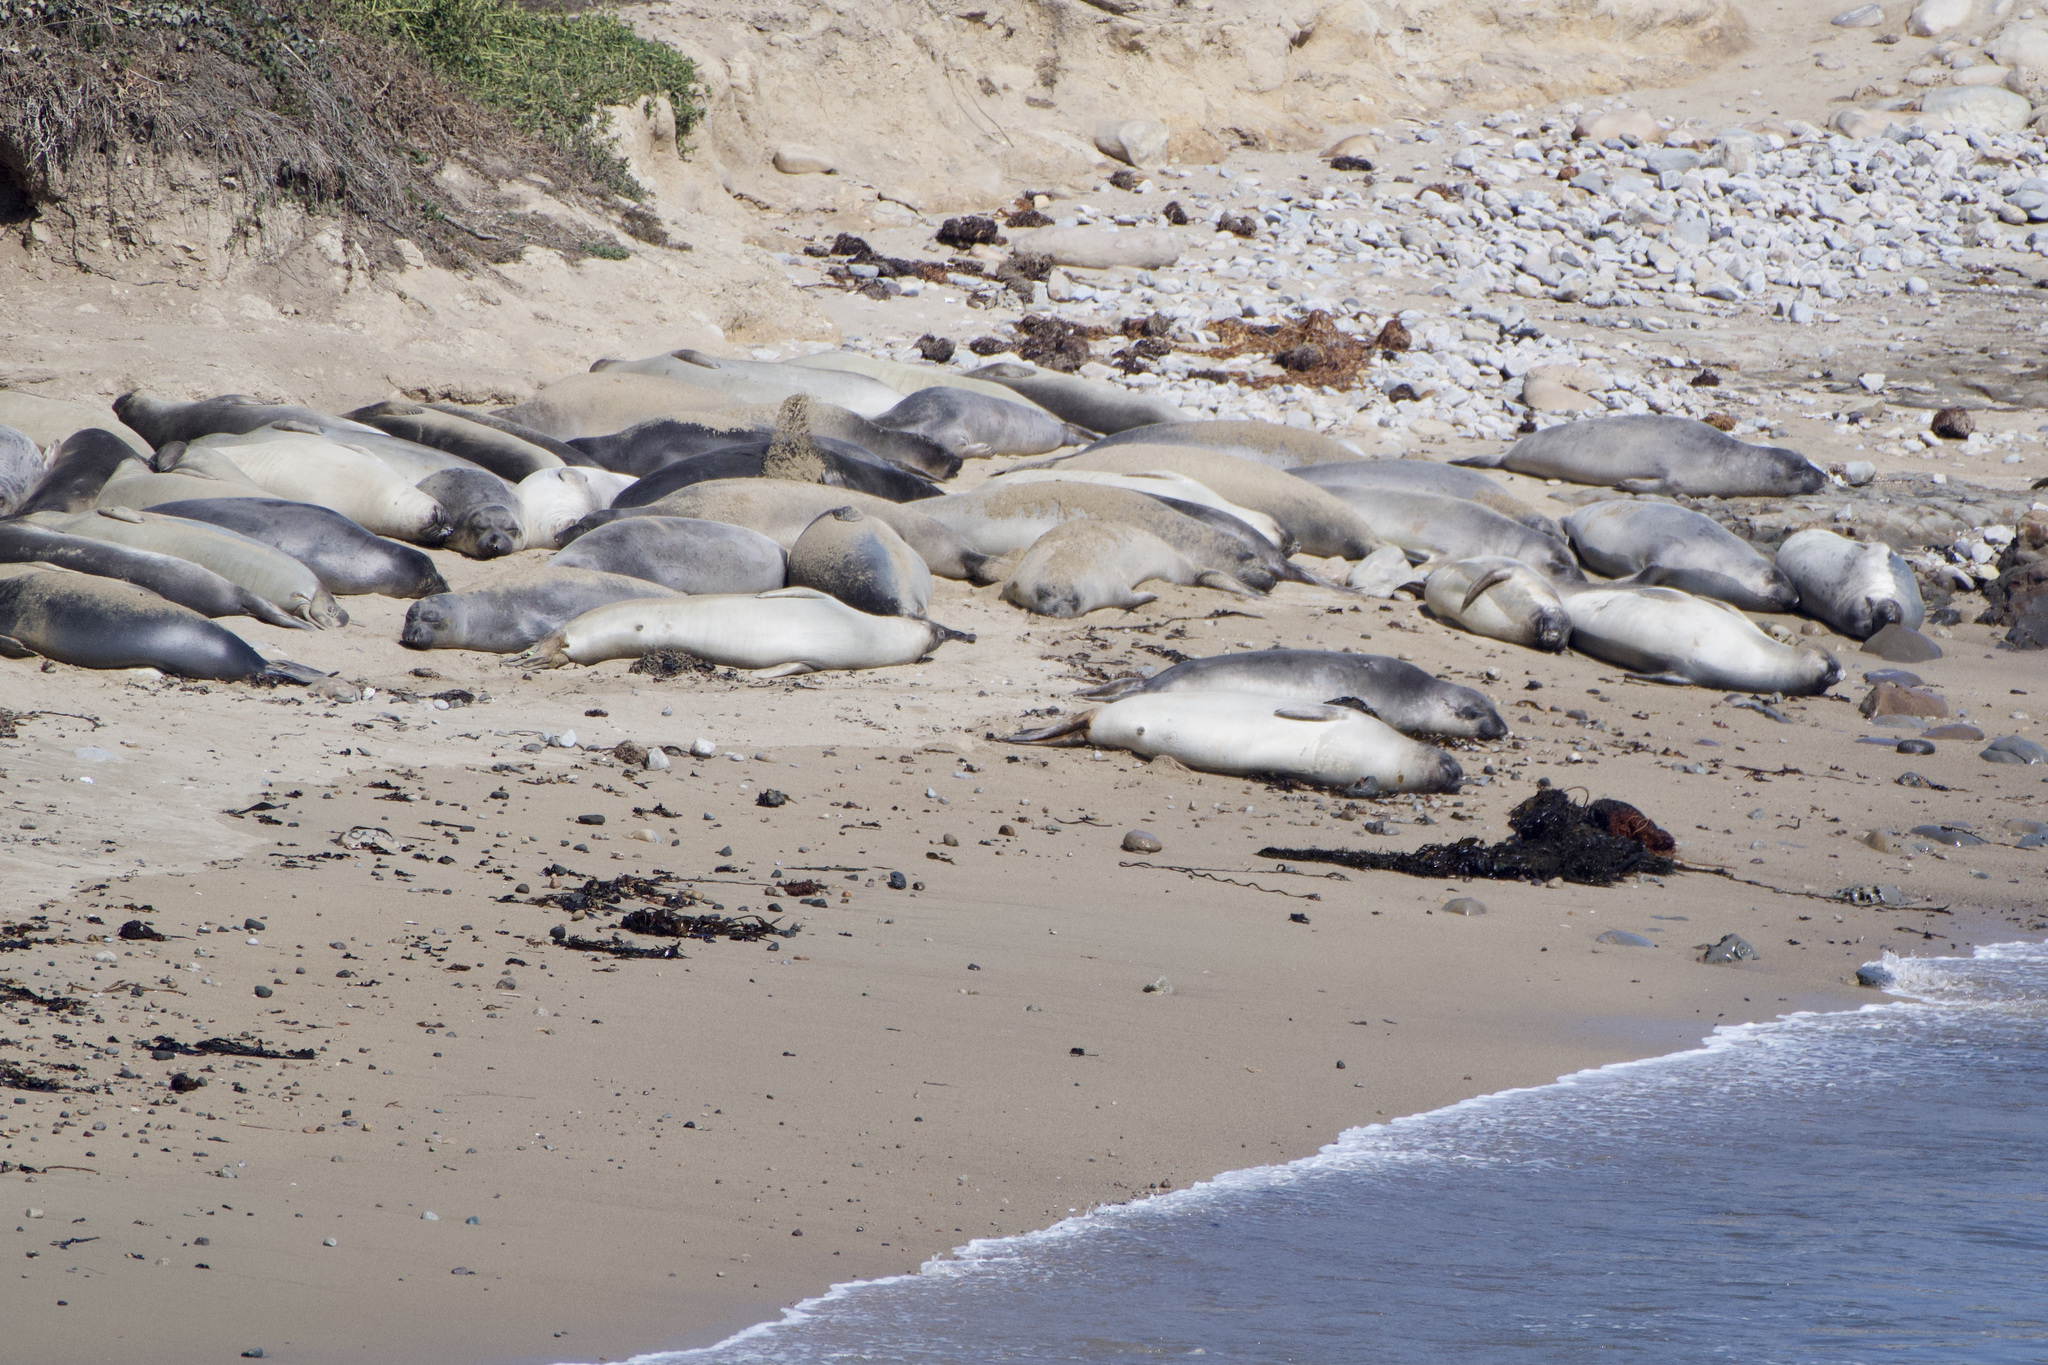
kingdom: Animalia
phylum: Chordata
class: Mammalia
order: Carnivora
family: Phocidae
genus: Mirounga
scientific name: Mirounga angustirostris
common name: Northern elephant seal
